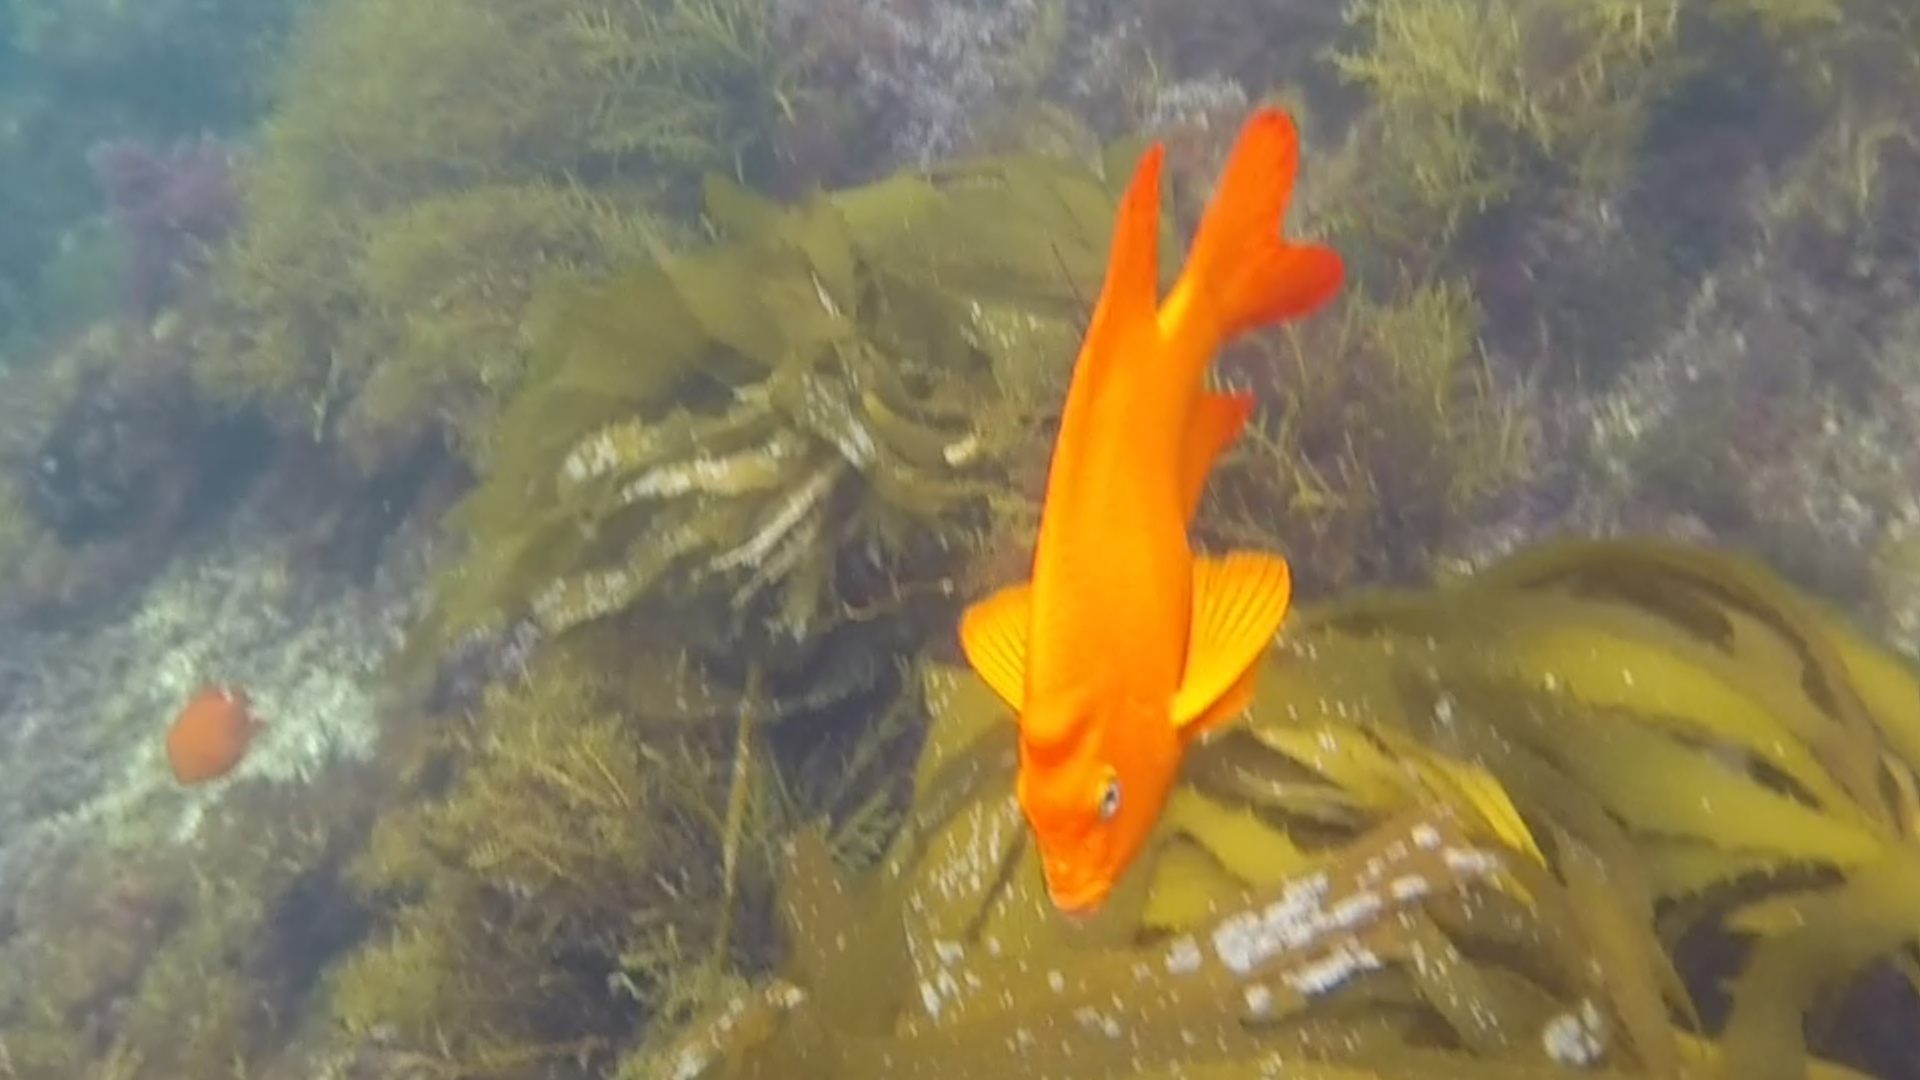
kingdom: Animalia
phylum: Chordata
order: Perciformes
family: Pomacentridae
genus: Hypsypops
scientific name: Hypsypops rubicundus
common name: Garibaldi
